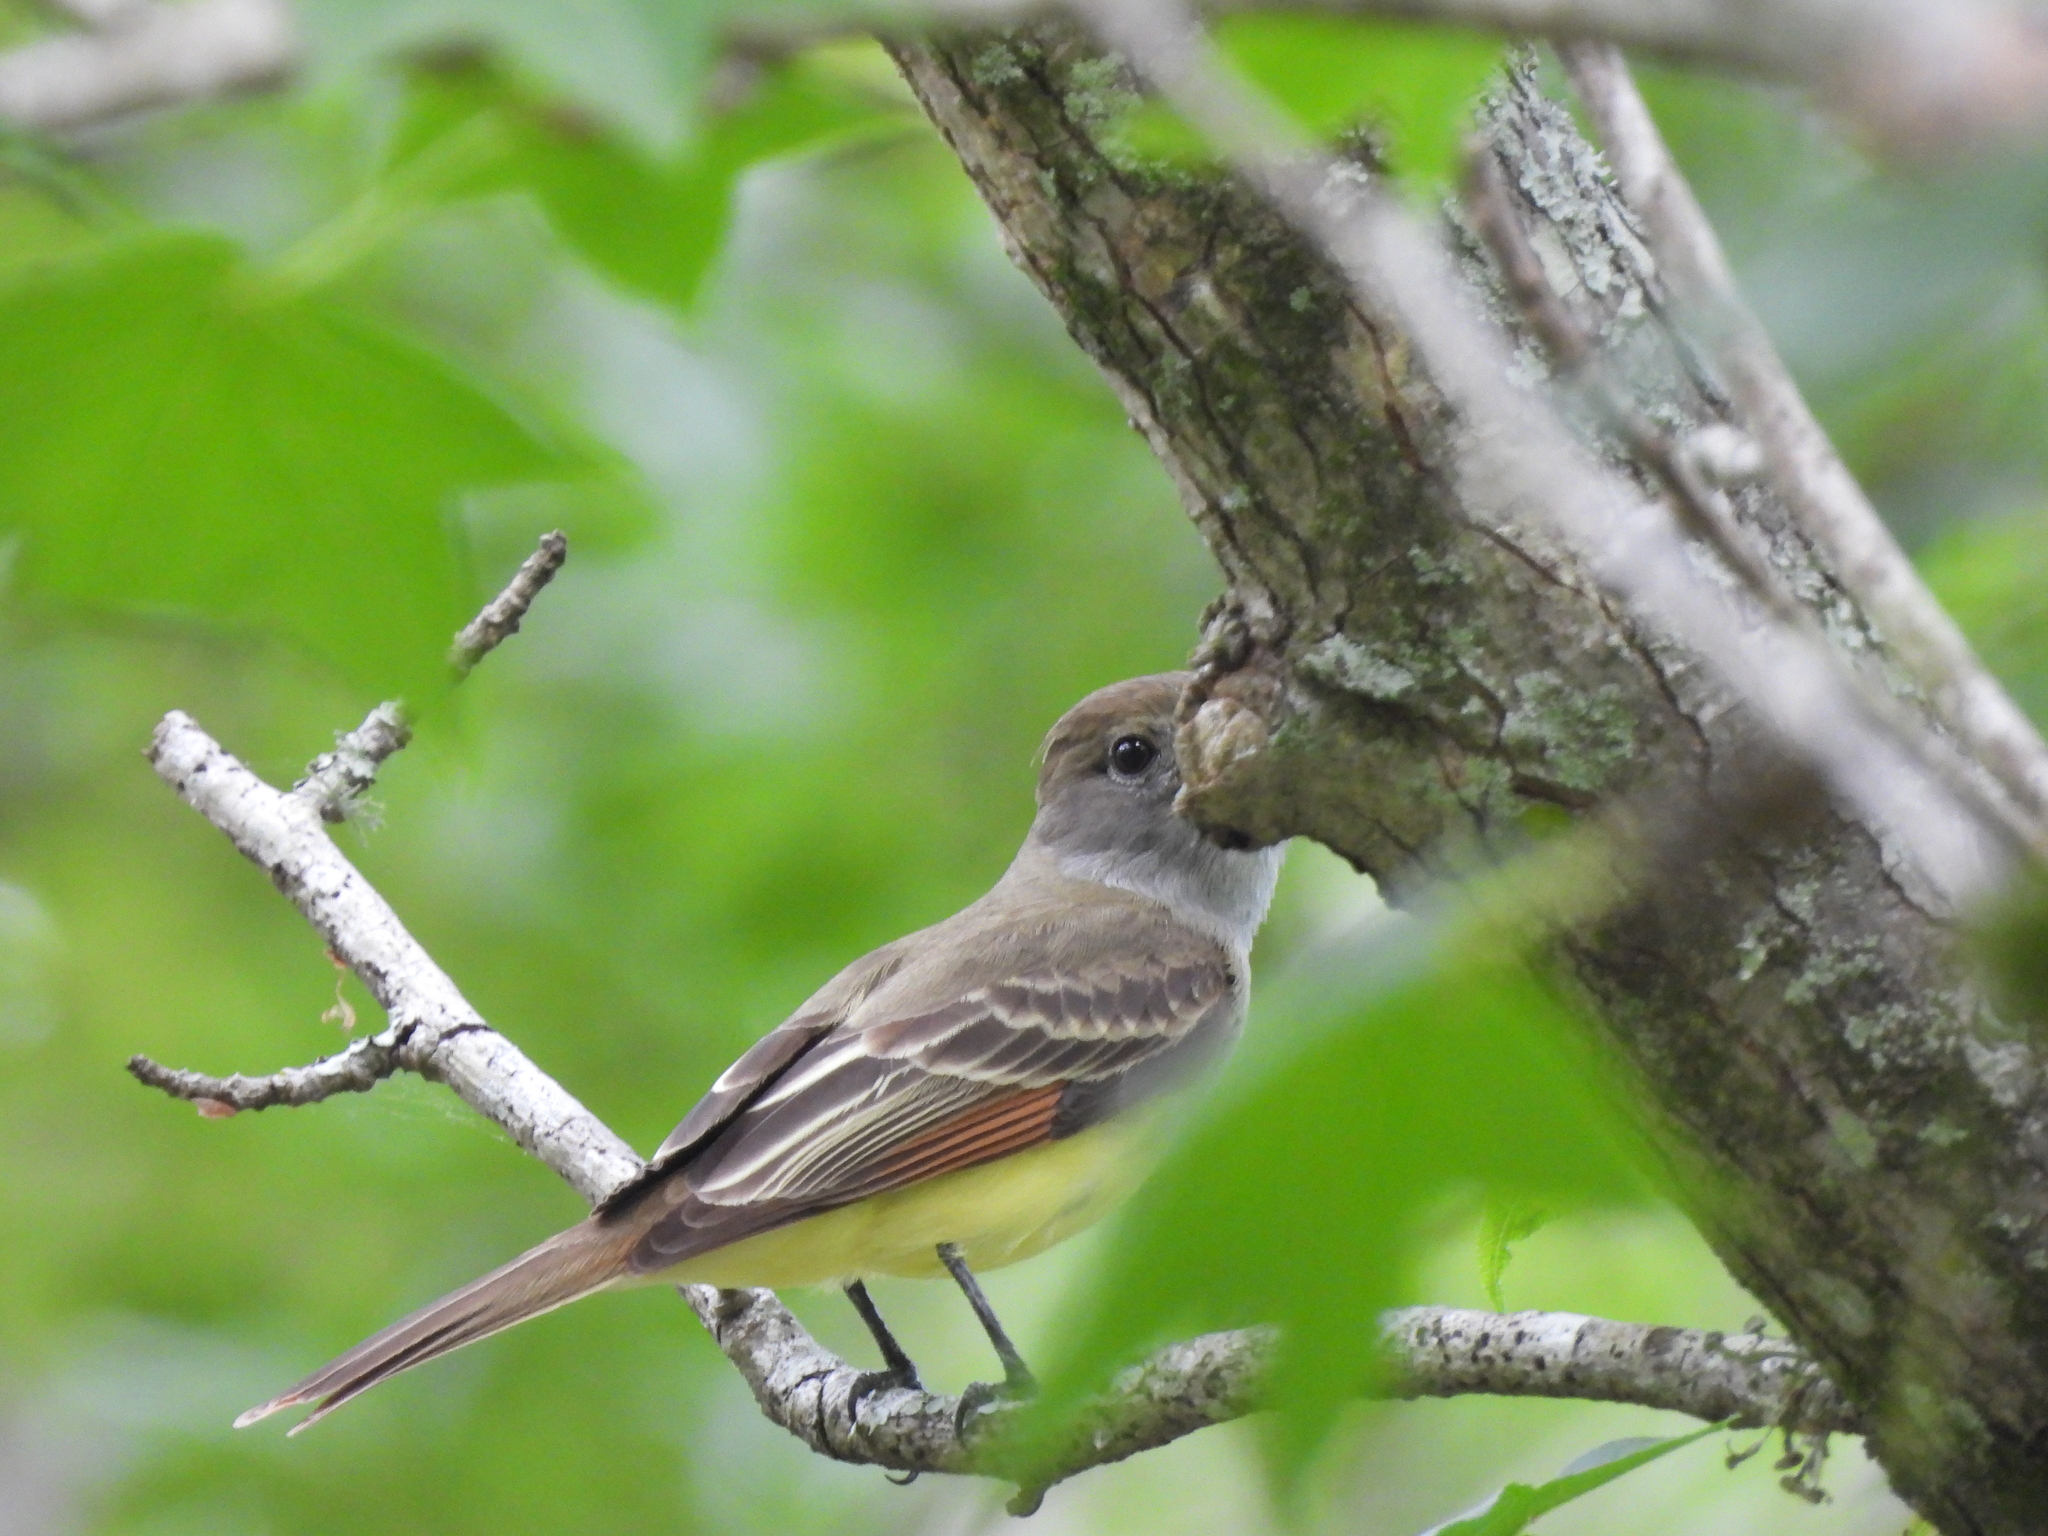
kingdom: Animalia
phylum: Chordata
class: Aves
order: Passeriformes
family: Tyrannidae
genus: Myiarchus
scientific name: Myiarchus crinitus
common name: Great crested flycatcher
